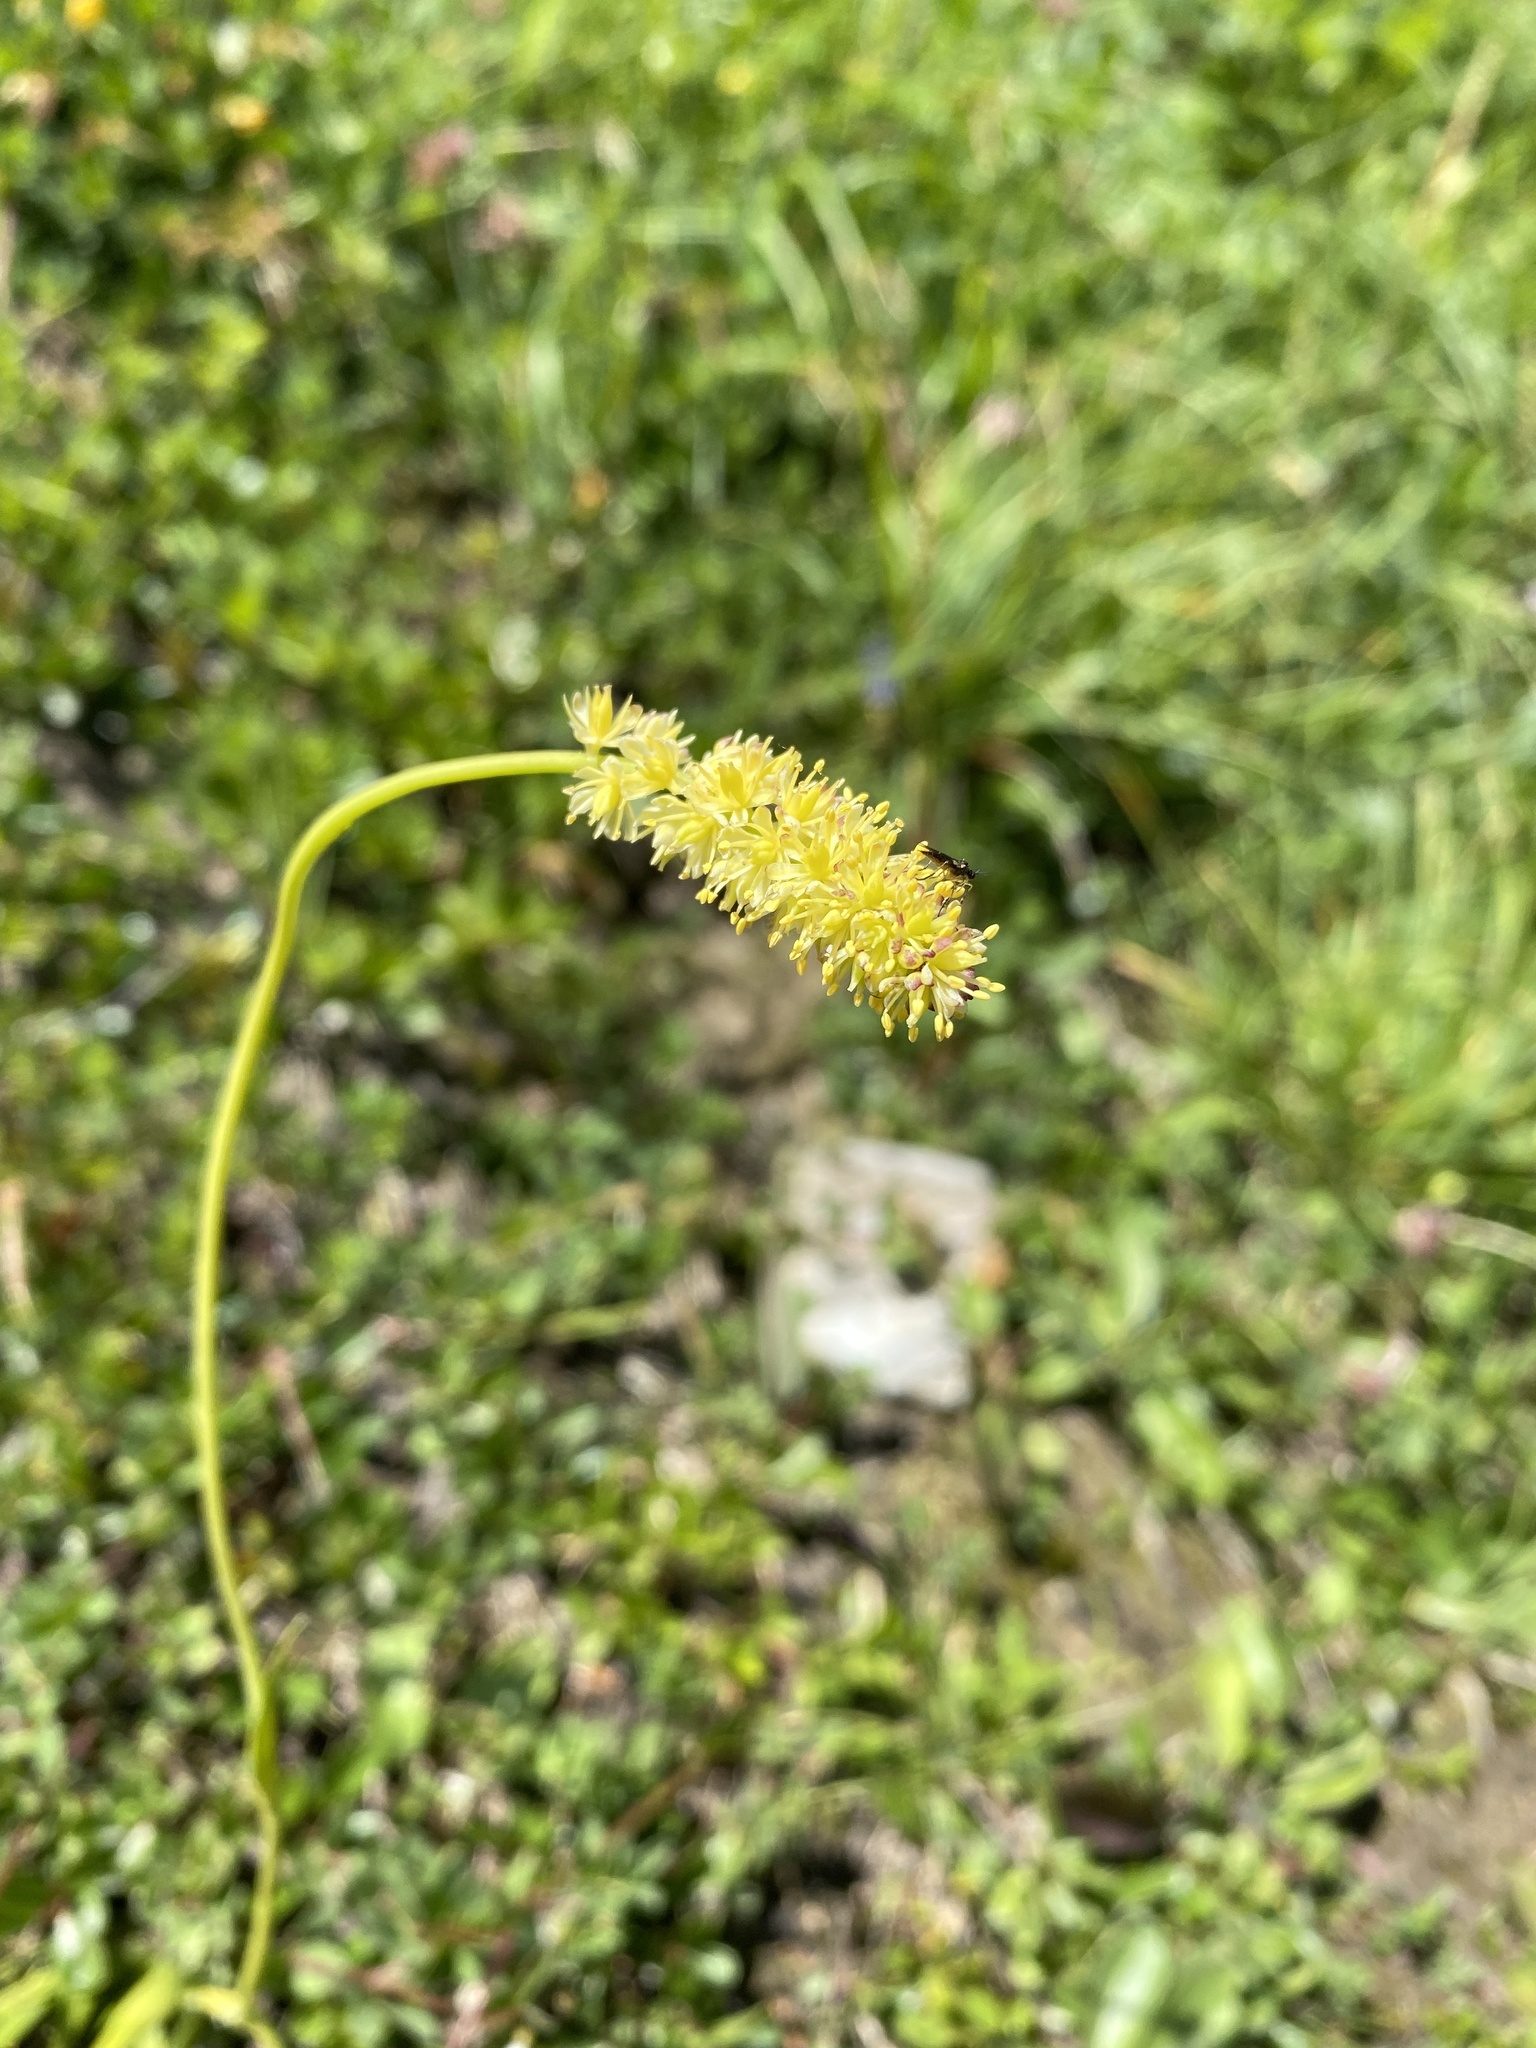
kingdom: Plantae
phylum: Tracheophyta
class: Liliopsida
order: Alismatales
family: Tofieldiaceae
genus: Tofieldia
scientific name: Tofieldia calyculata
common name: German-asphodel
